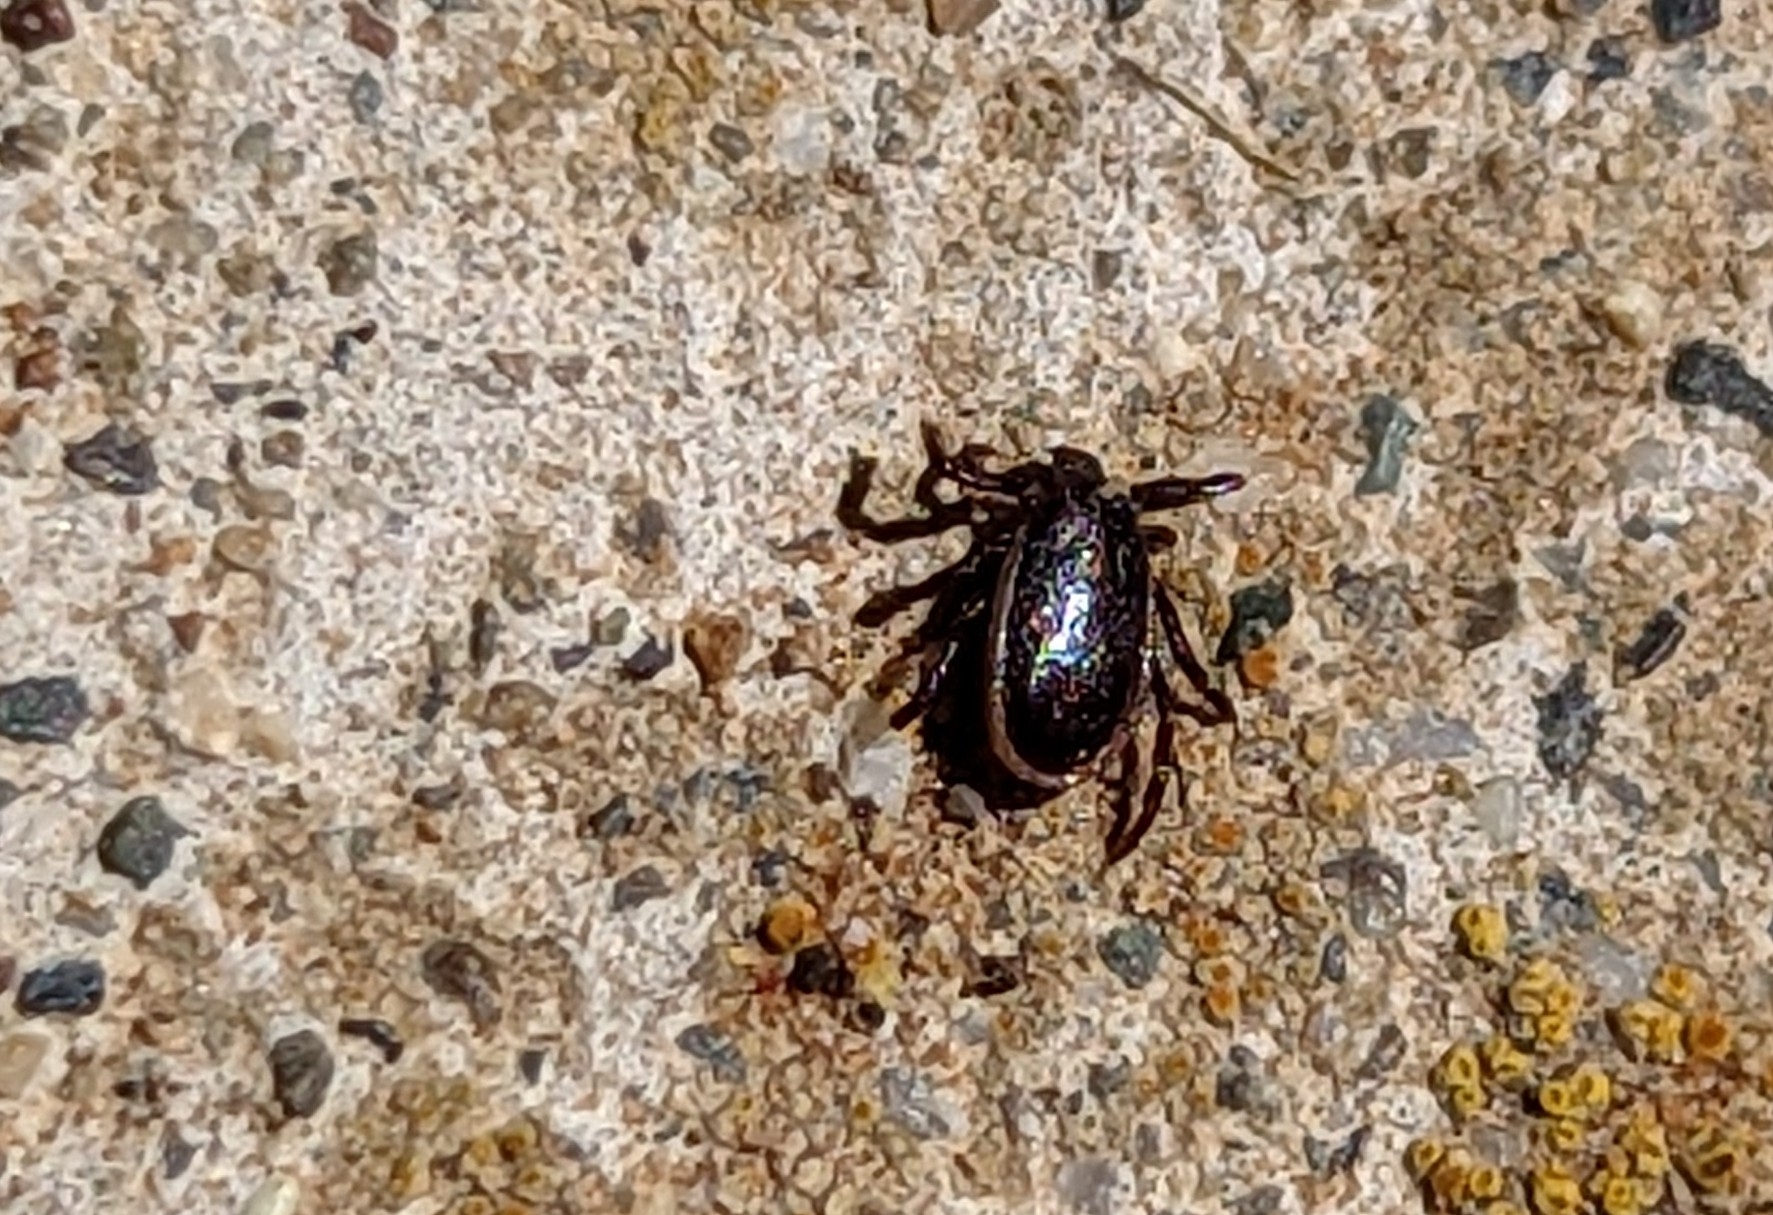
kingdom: Animalia
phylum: Arthropoda
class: Arachnida
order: Ixodida
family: Ixodidae
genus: Ixodes
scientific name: Ixodes pacificus
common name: California black-legged tick
